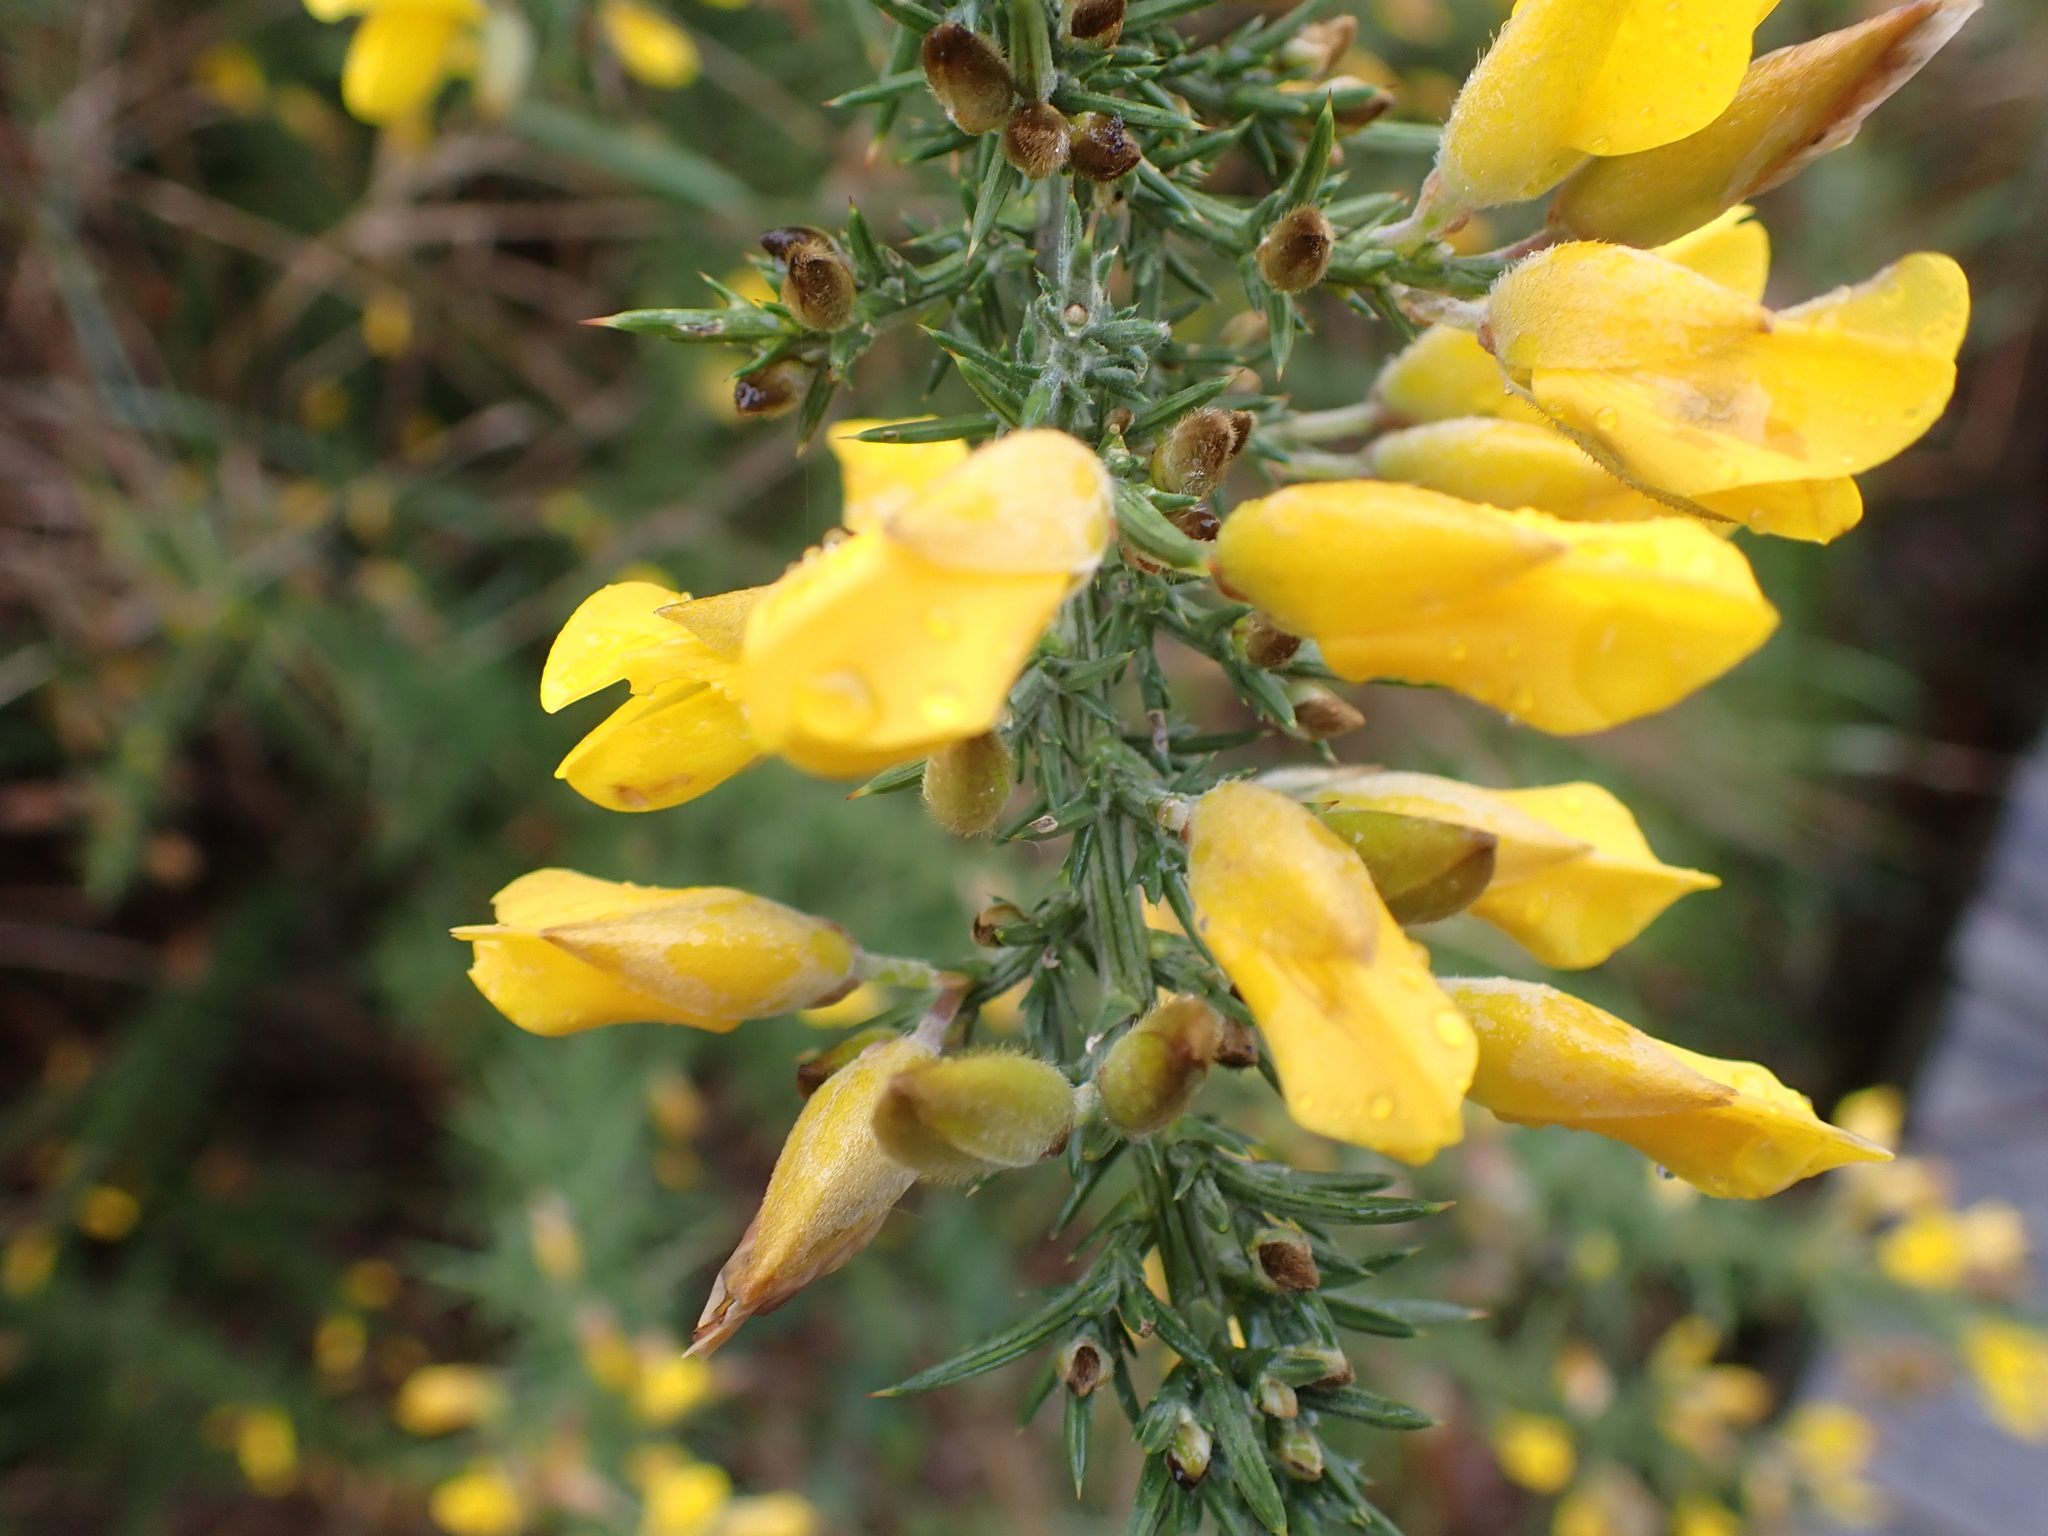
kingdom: Plantae
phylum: Tracheophyta
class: Magnoliopsida
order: Fabales
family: Fabaceae
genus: Ulex
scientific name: Ulex europaeus
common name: Common gorse
